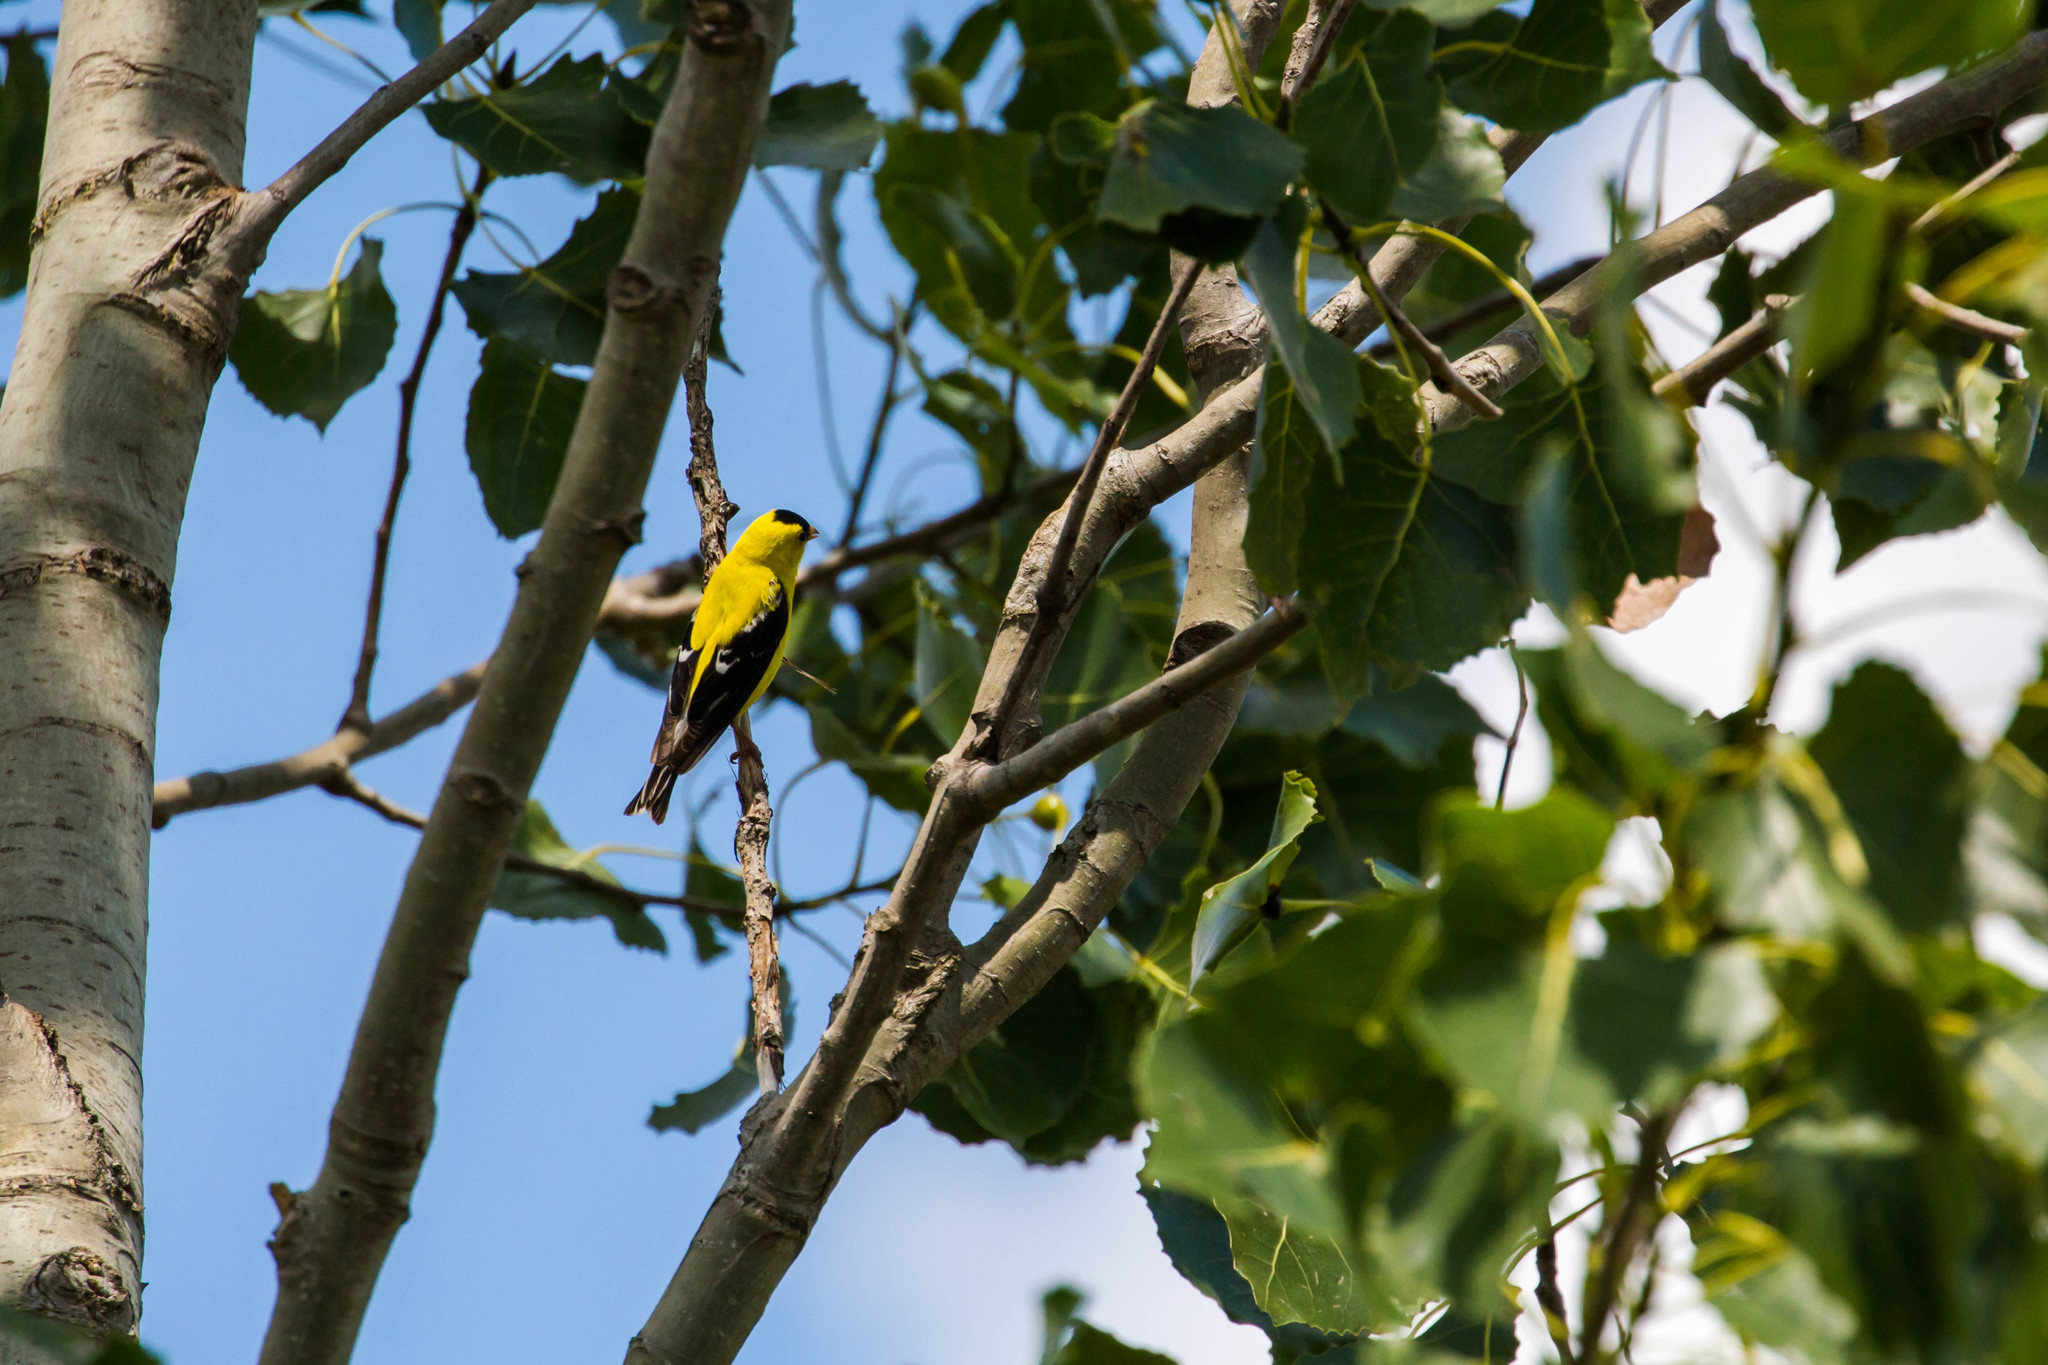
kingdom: Animalia
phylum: Chordata
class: Aves
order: Passeriformes
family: Fringillidae
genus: Spinus
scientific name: Spinus tristis
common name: American goldfinch
